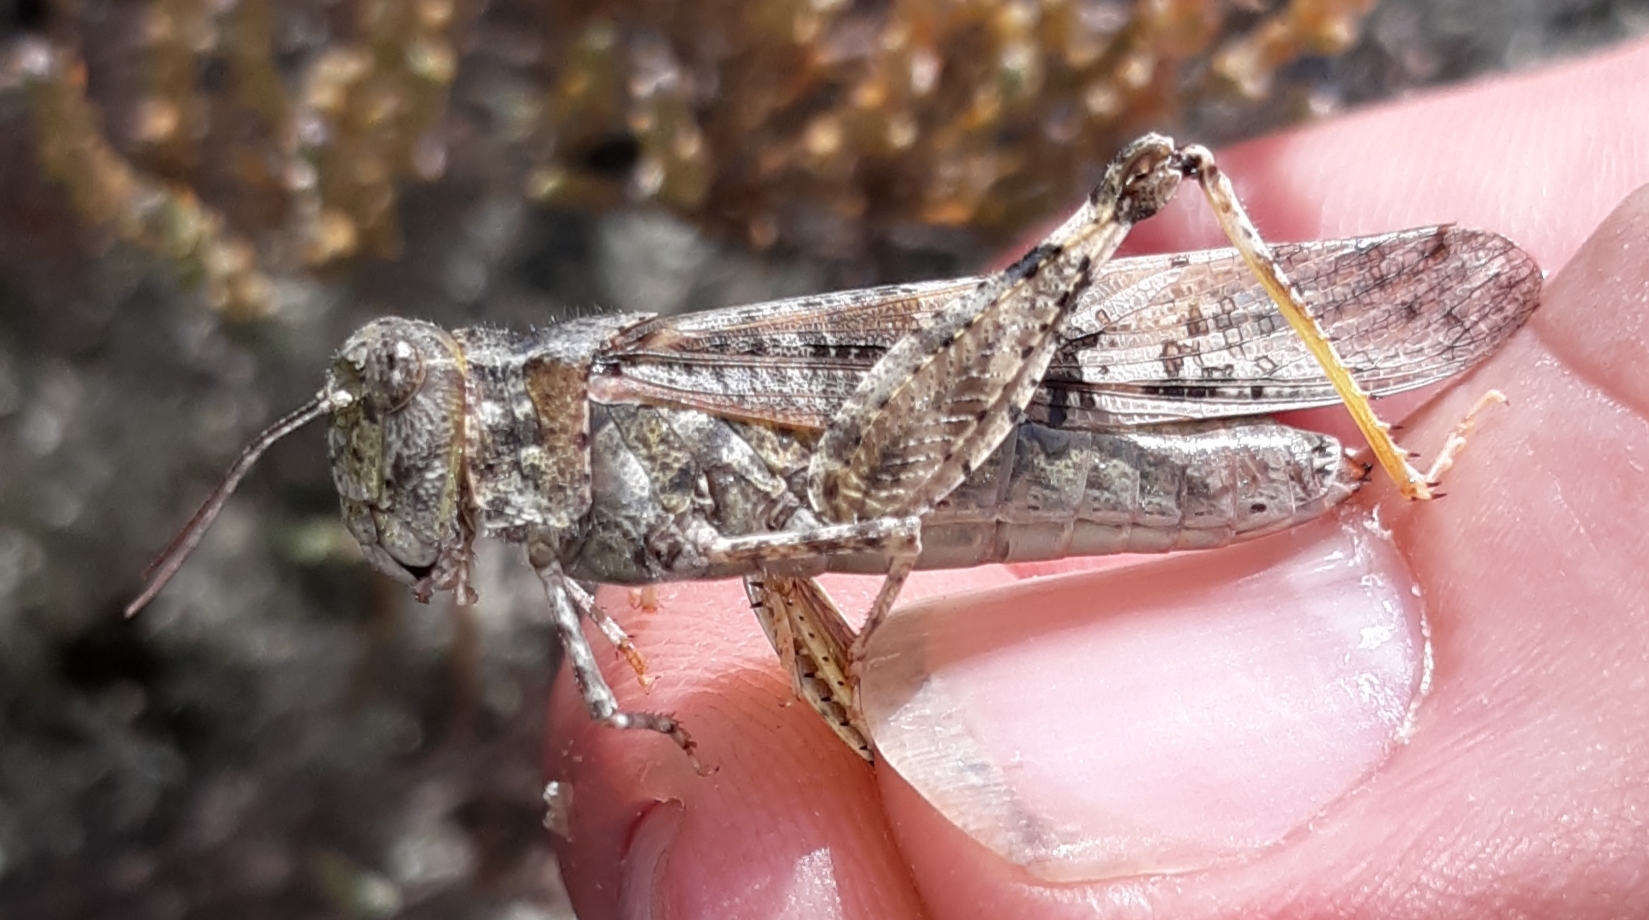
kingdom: Animalia
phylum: Arthropoda
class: Insecta
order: Orthoptera
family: Acrididae
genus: Trimerotropis
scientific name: Trimerotropis huroniana
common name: Lake huron locust
